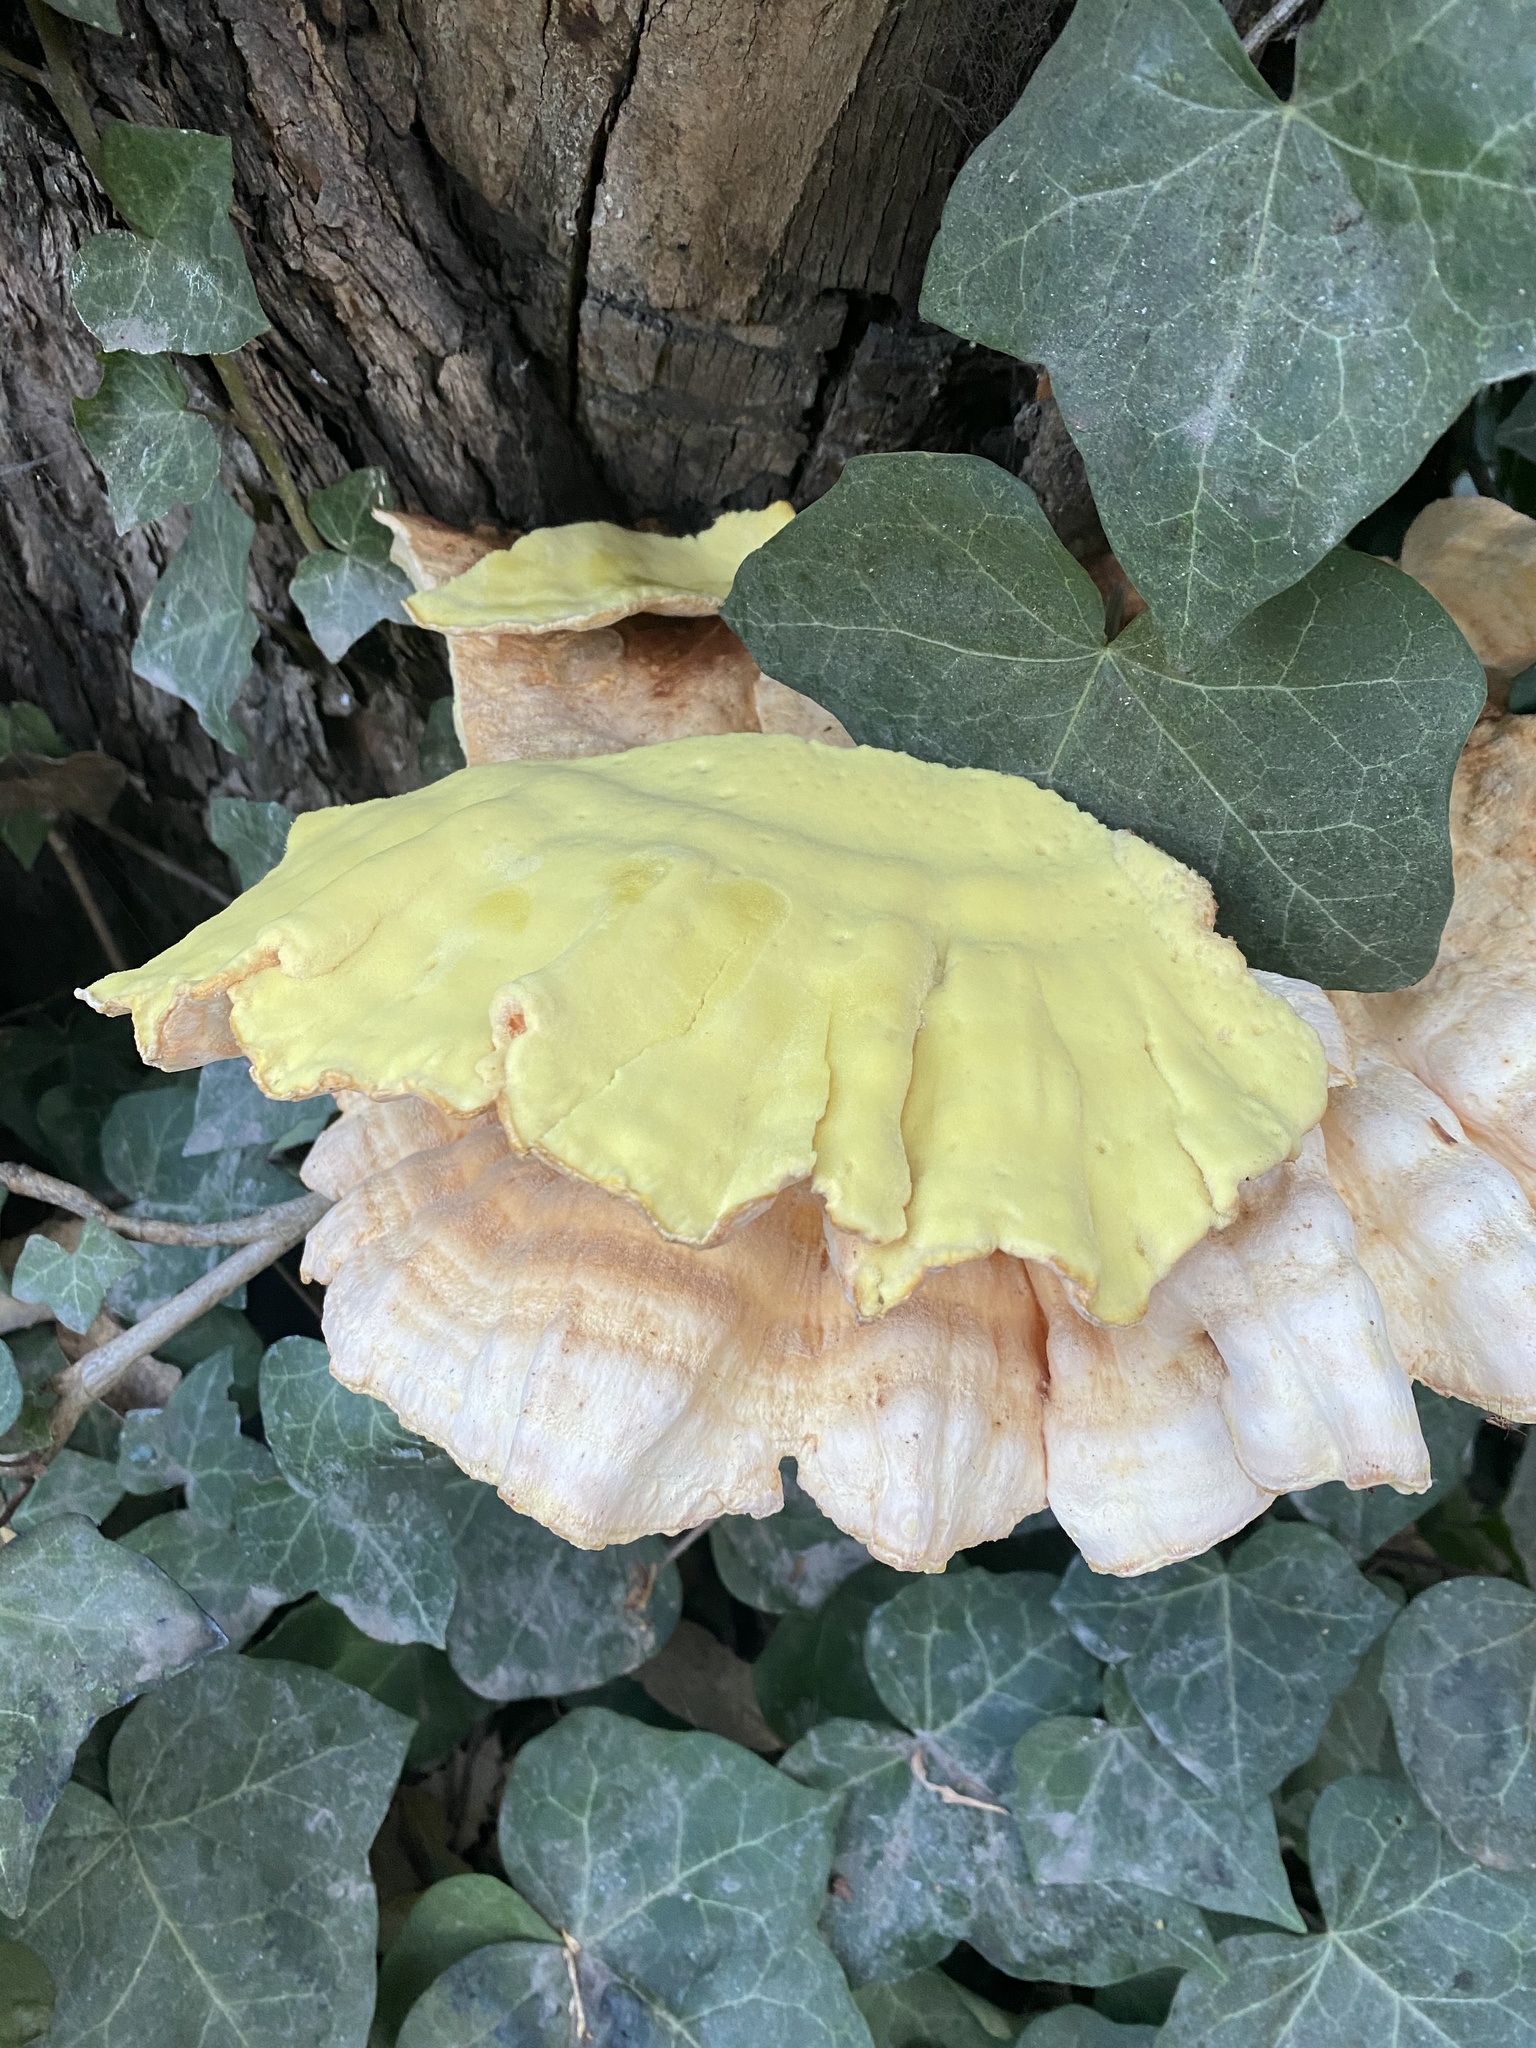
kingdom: Fungi
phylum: Basidiomycota
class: Agaricomycetes
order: Polyporales
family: Laetiporaceae
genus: Laetiporus
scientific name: Laetiporus gilbertsonii
